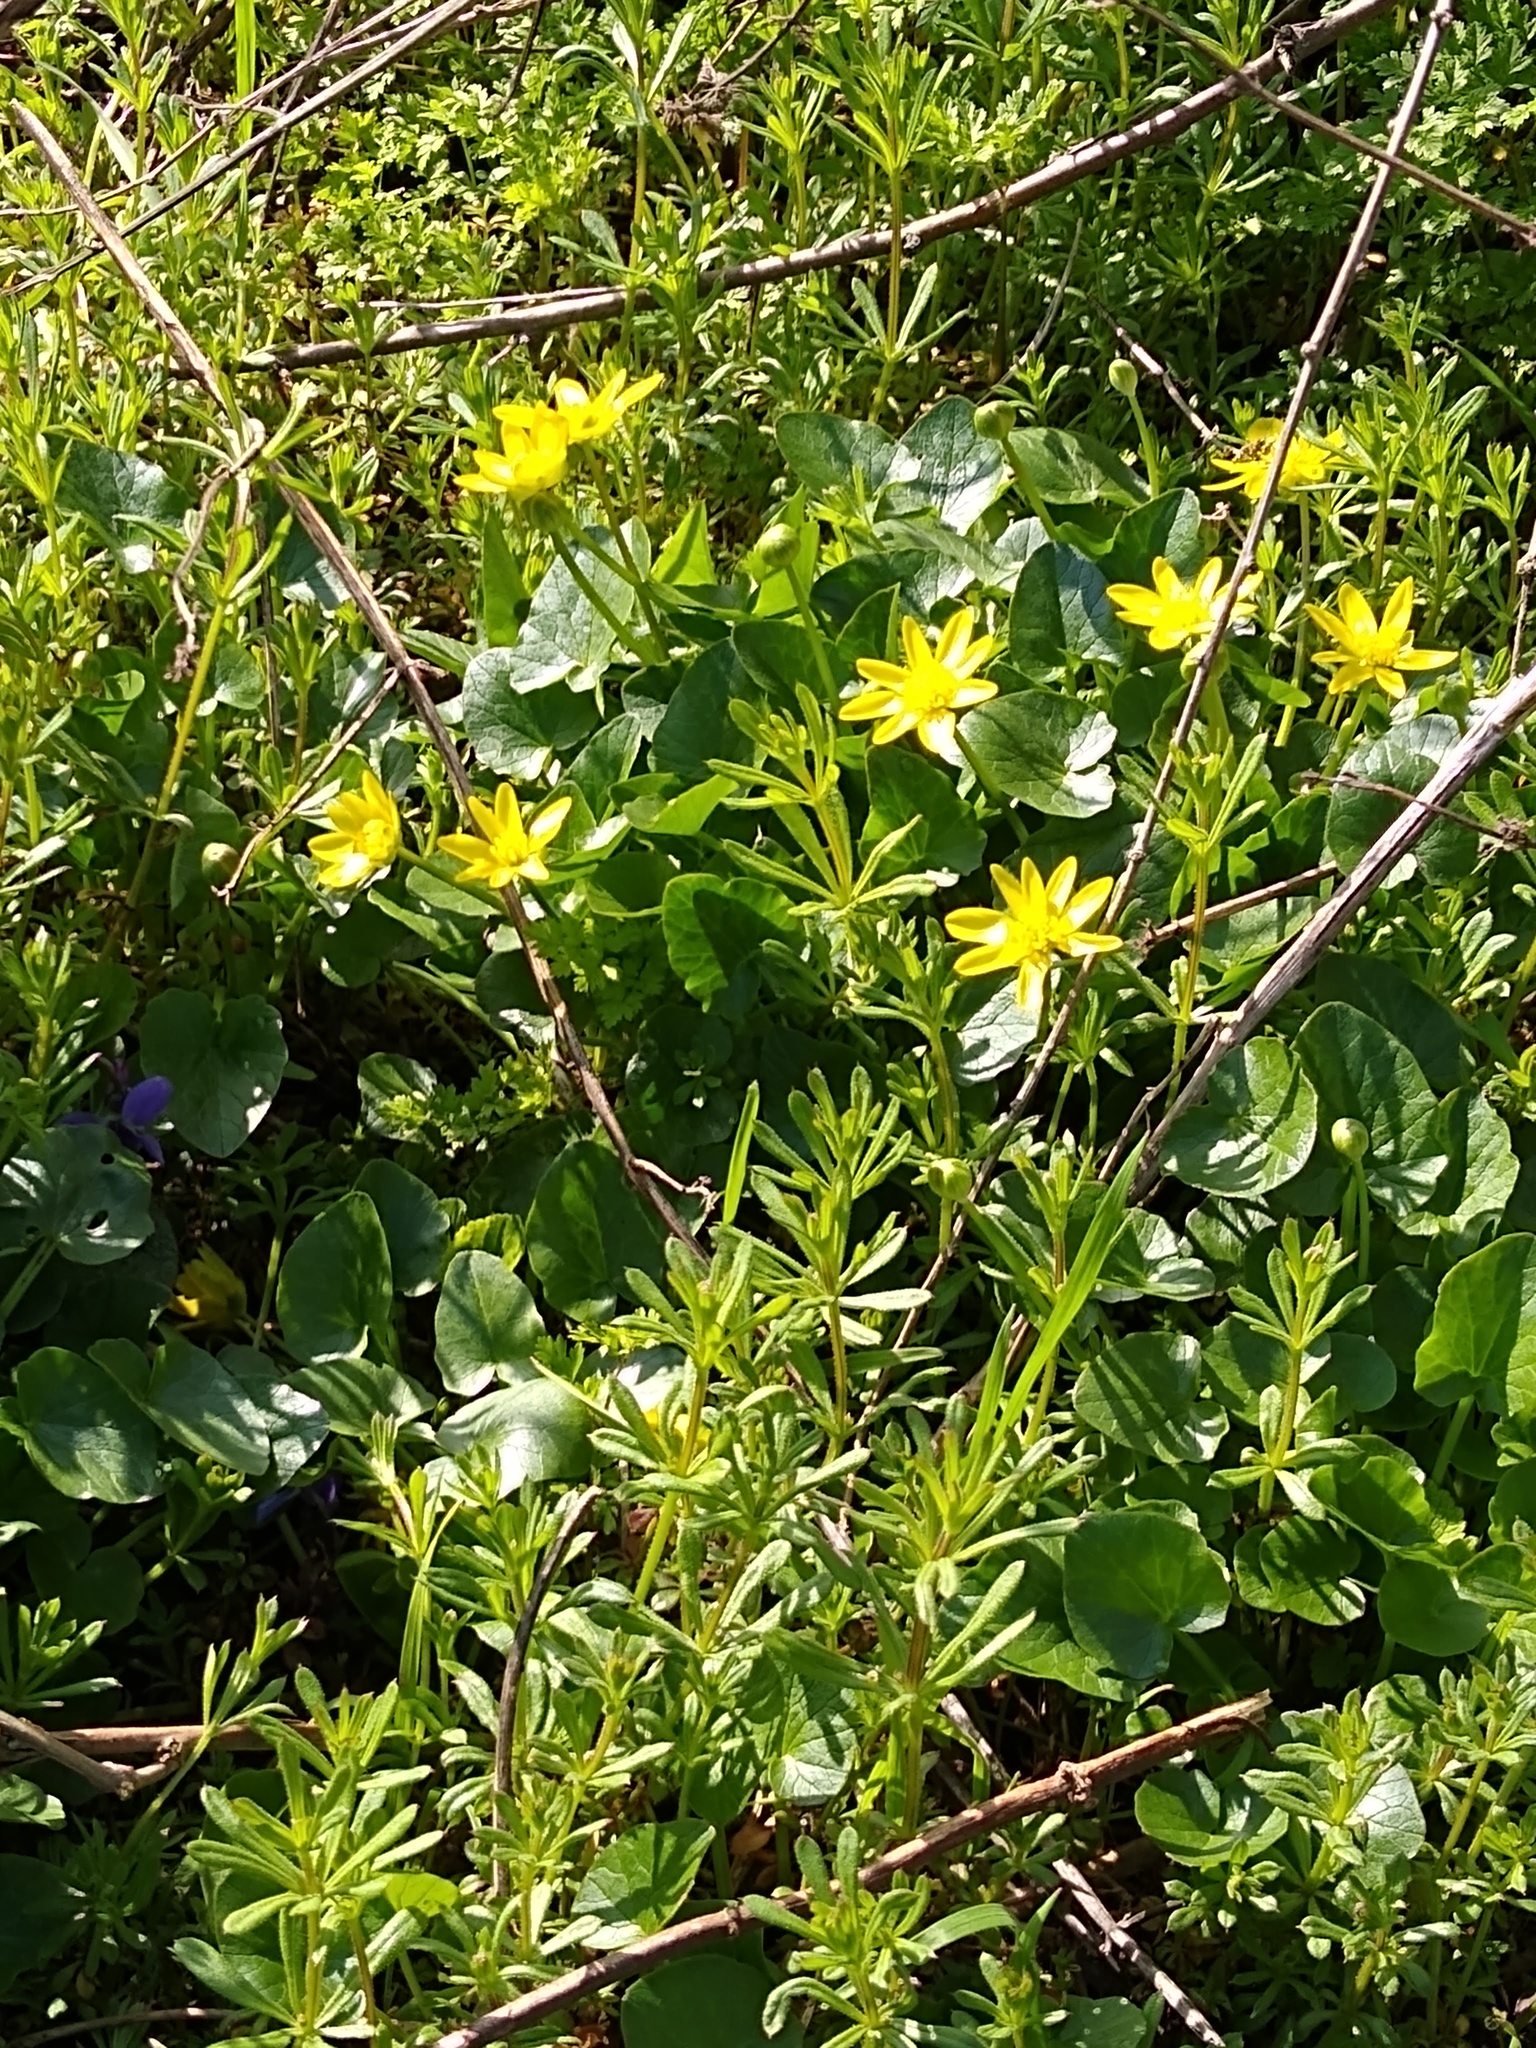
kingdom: Plantae
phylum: Tracheophyta
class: Magnoliopsida
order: Ranunculales
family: Ranunculaceae
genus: Ficaria
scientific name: Ficaria verna
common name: Lesser celandine
